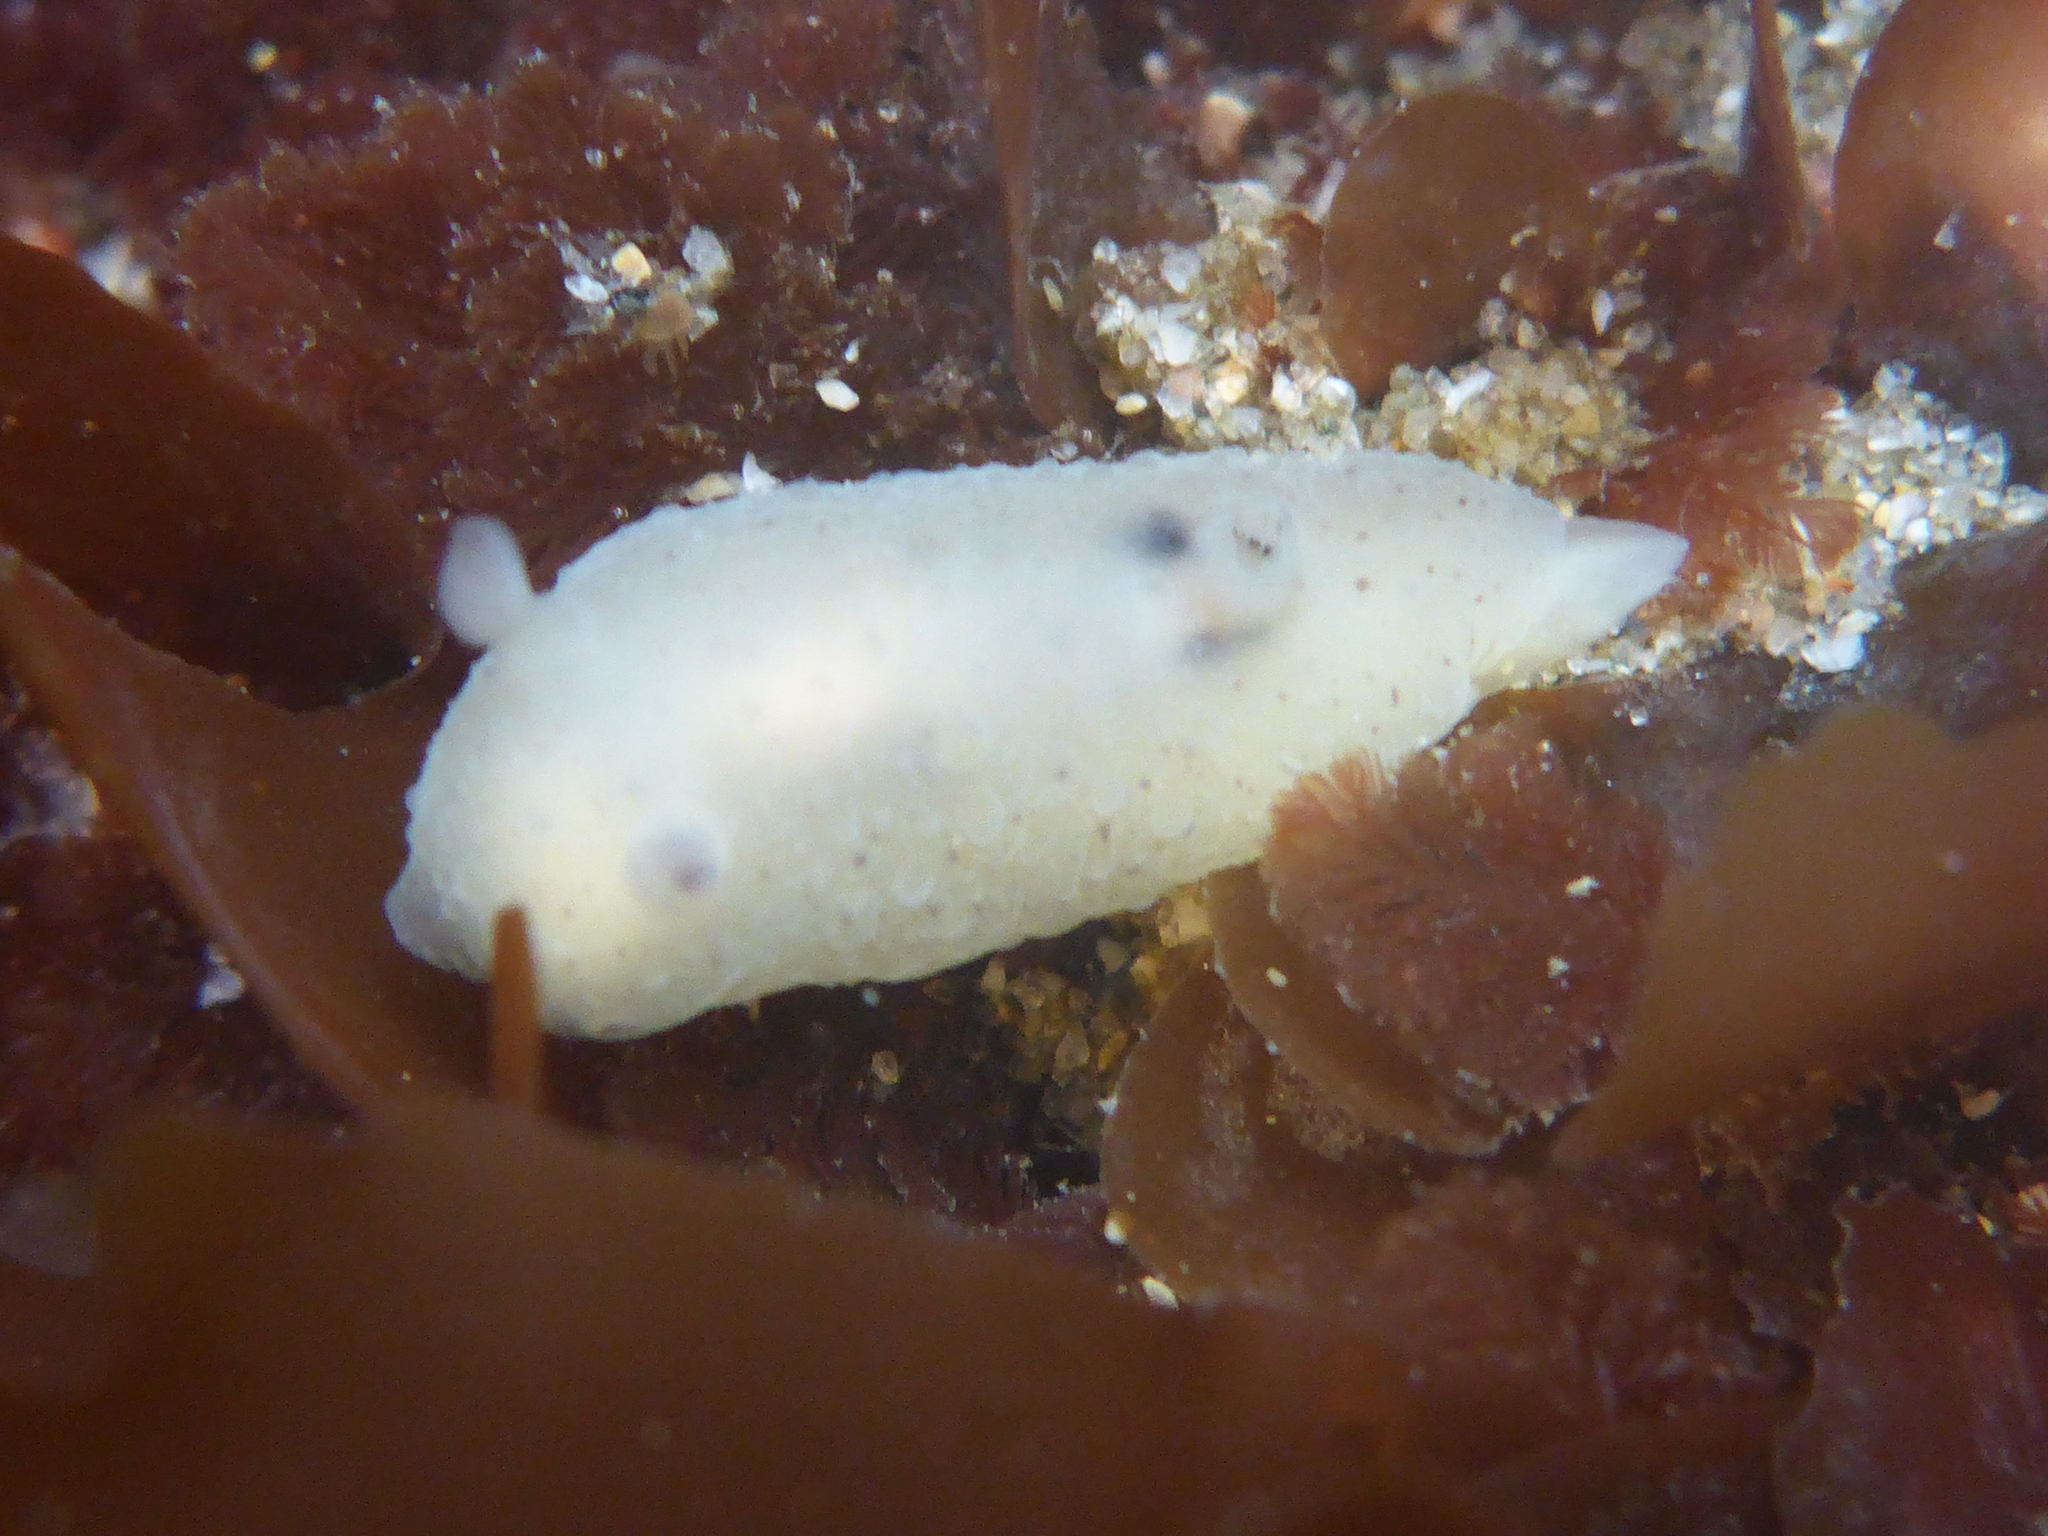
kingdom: Animalia
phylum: Mollusca
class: Gastropoda
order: Nudibranchia
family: Actinocyclidae
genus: Hallaxa
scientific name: Hallaxa chani
